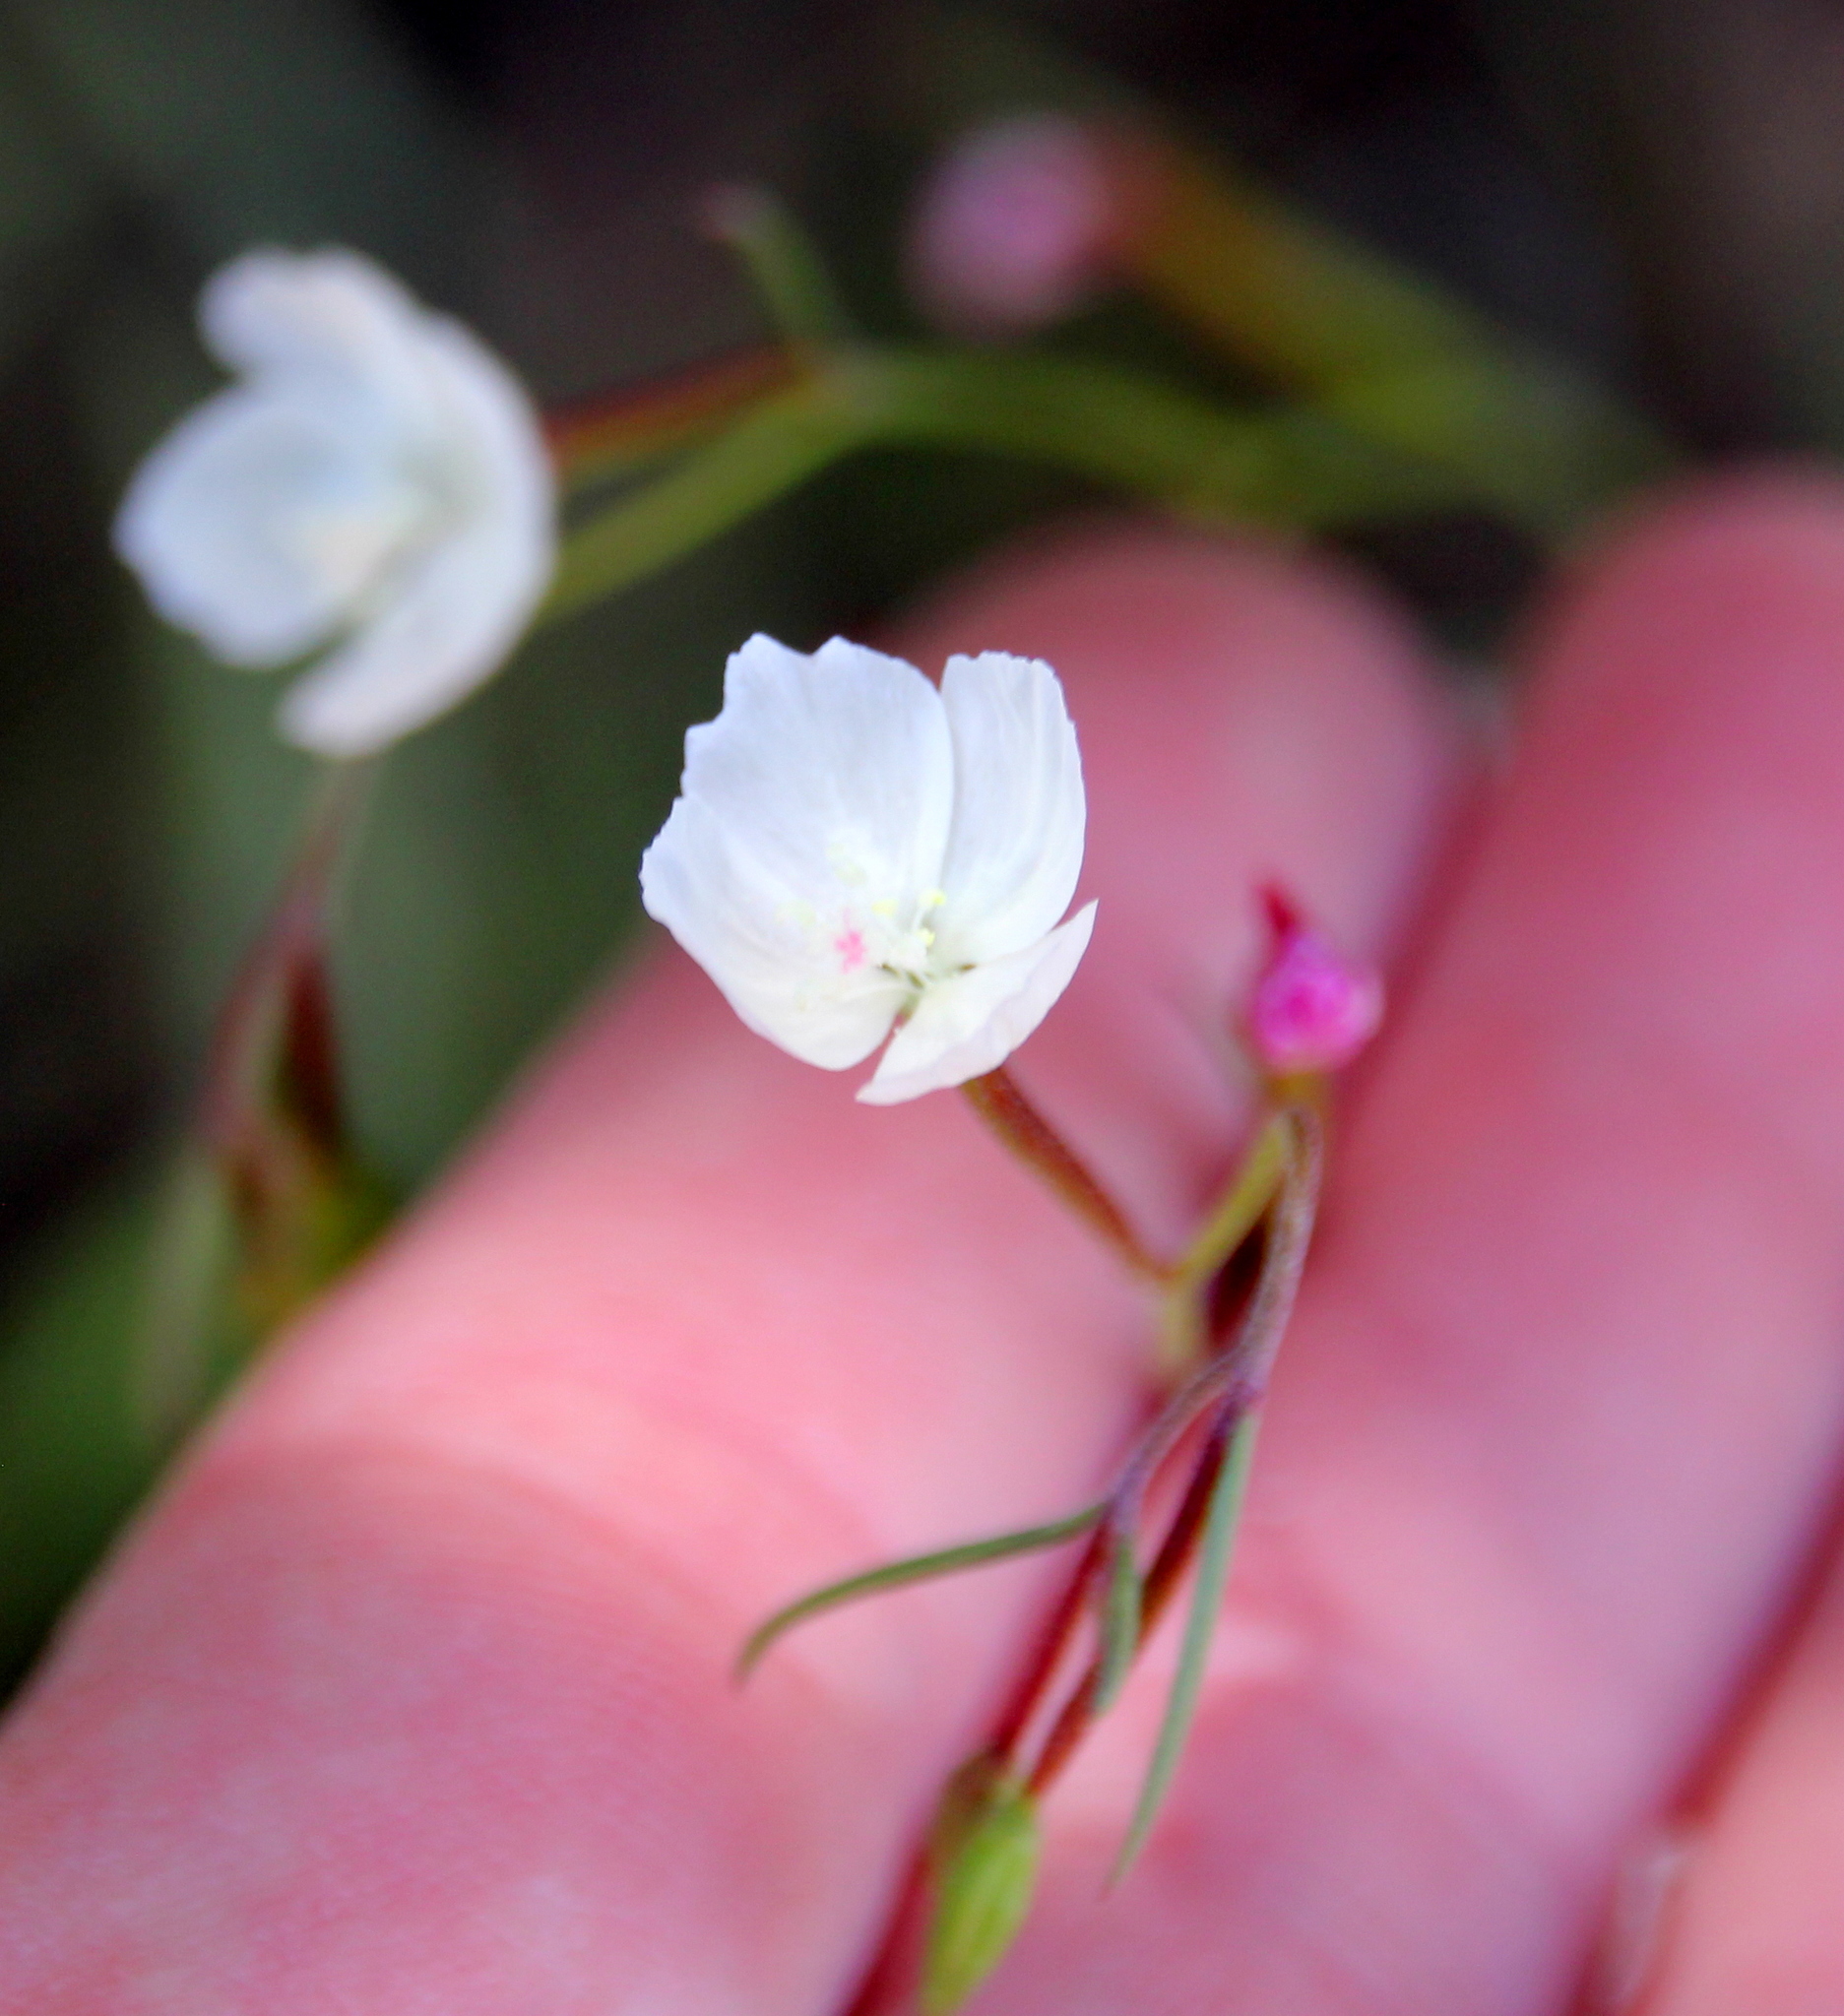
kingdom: Plantae
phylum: Tracheophyta
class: Magnoliopsida
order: Myrtales
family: Onagraceae
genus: Clarkia
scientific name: Clarkia epilobioides
